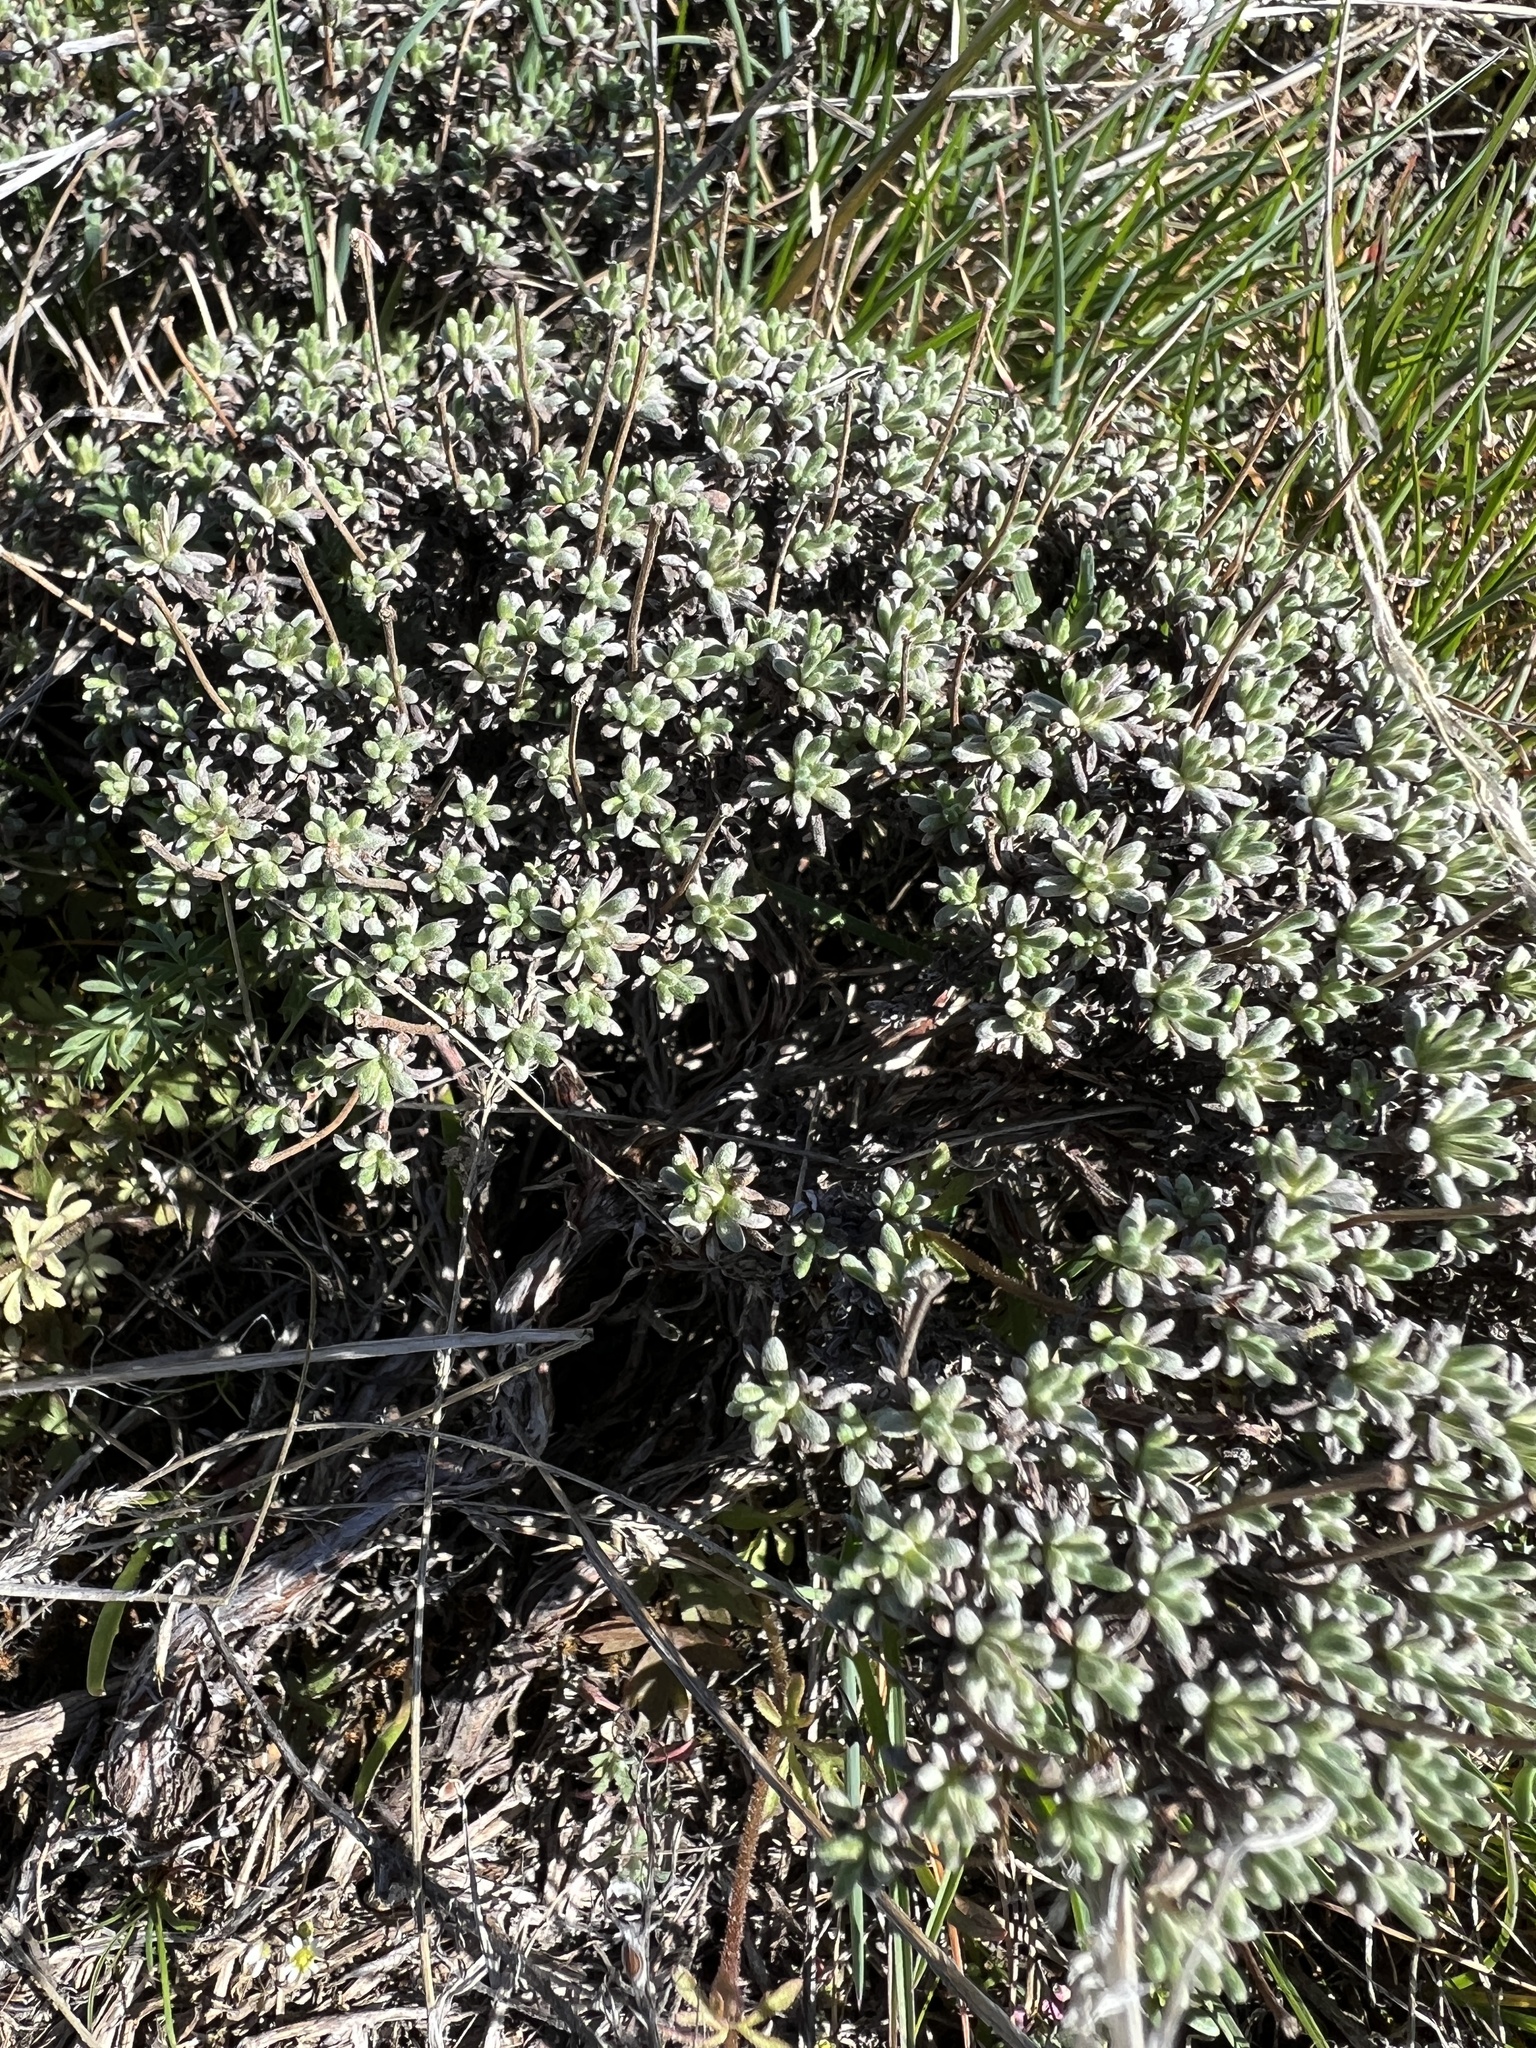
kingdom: Plantae
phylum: Tracheophyta
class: Magnoliopsida
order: Caryophyllales
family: Polygonaceae
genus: Eriogonum
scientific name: Eriogonum thymoides
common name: Thyme-leaf wild buckwheat
